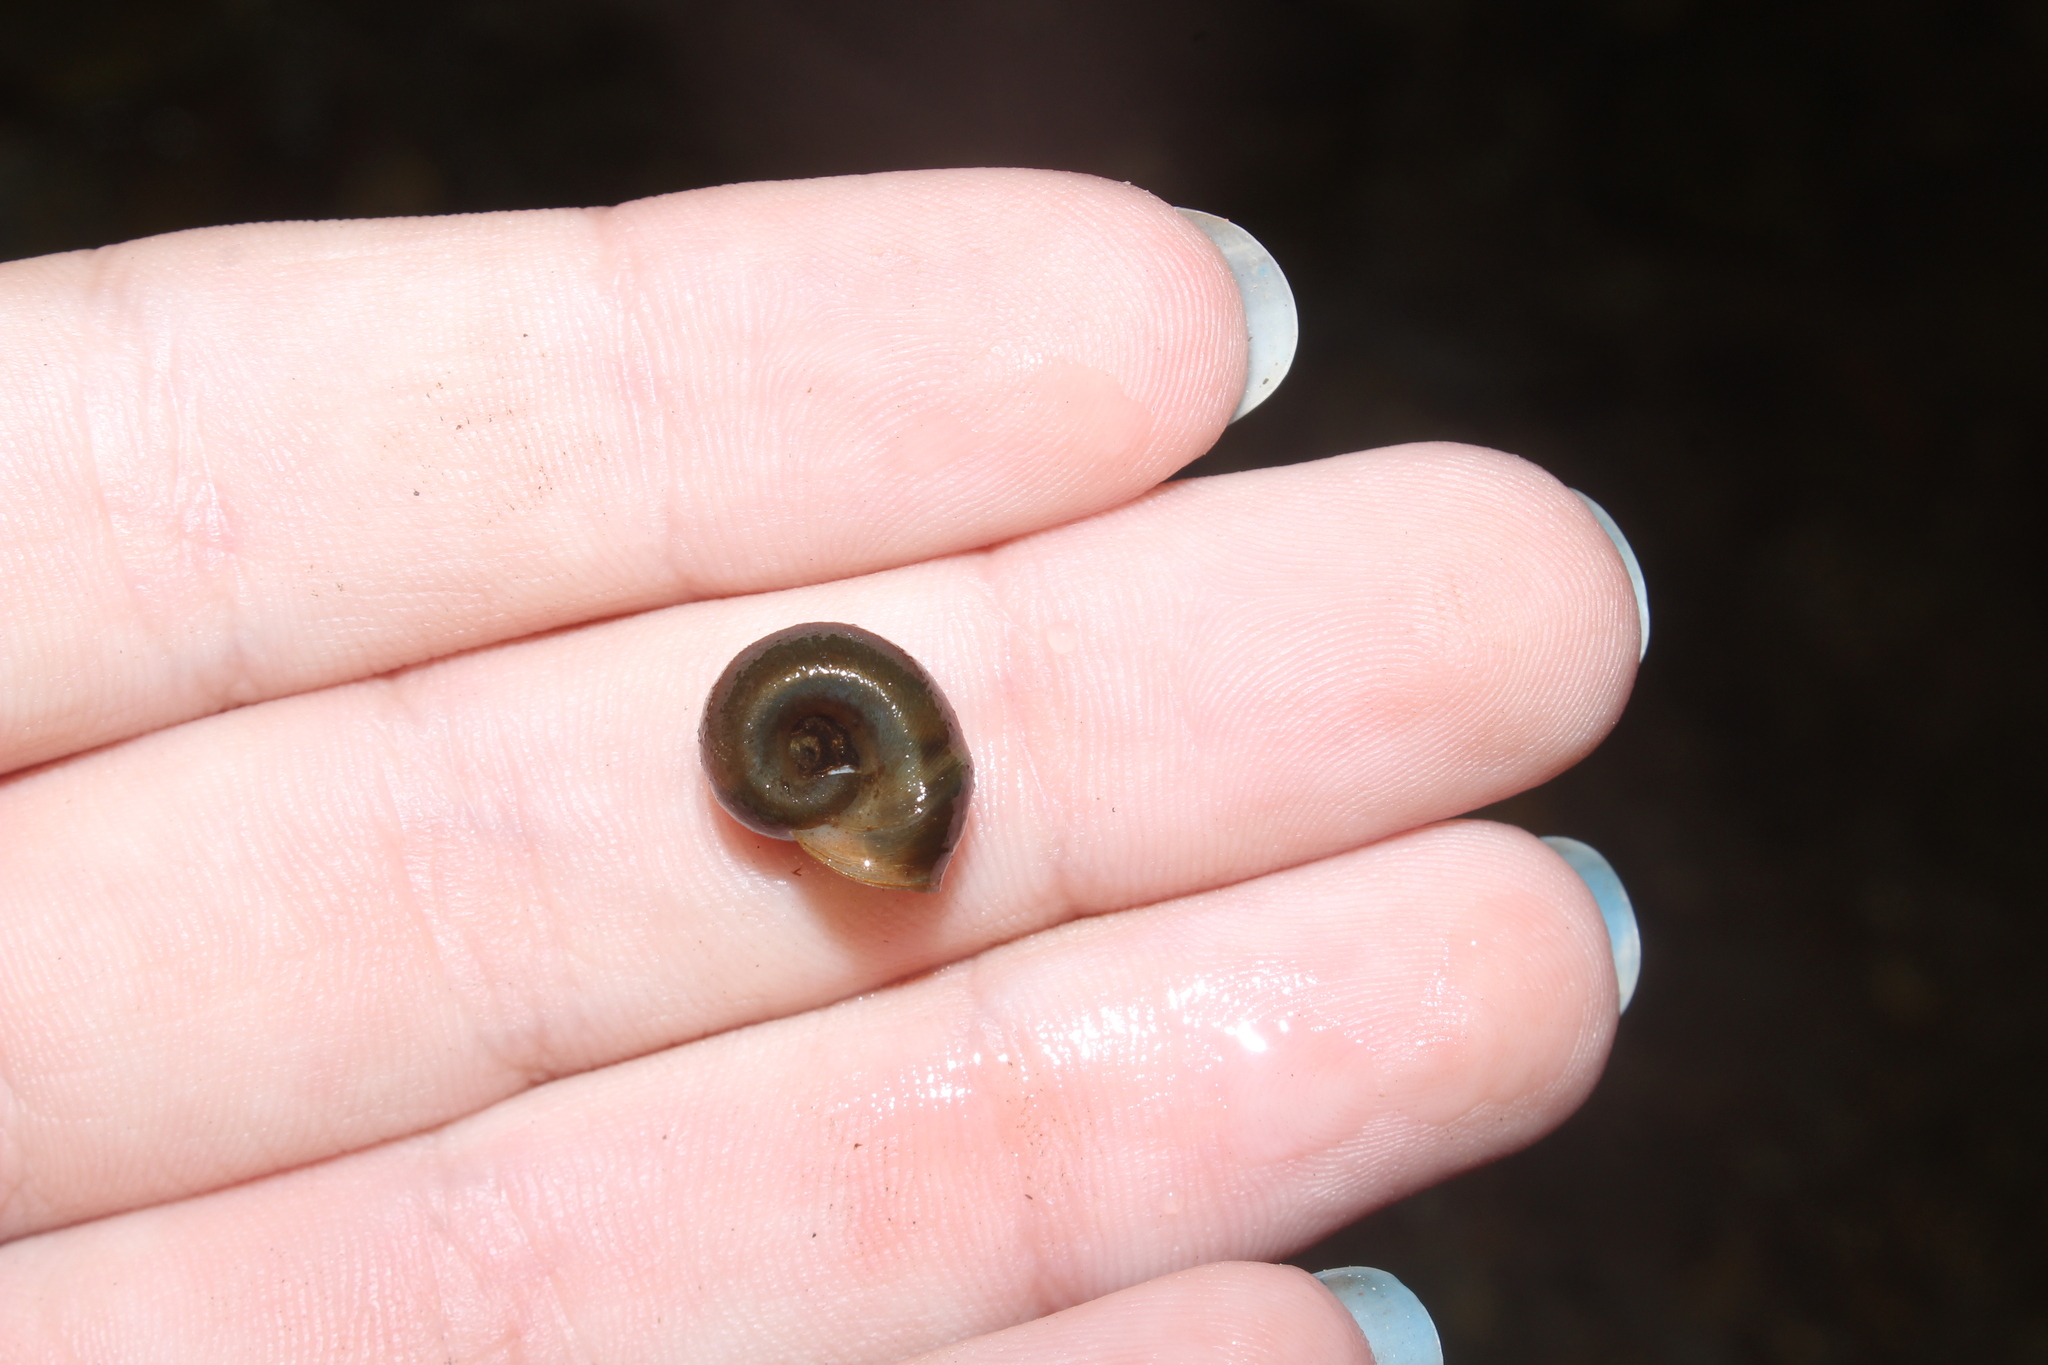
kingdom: Animalia
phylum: Mollusca
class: Gastropoda
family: Planorbidae
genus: Planorbella
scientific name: Planorbella trivolvis
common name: Marsh rams-horn
